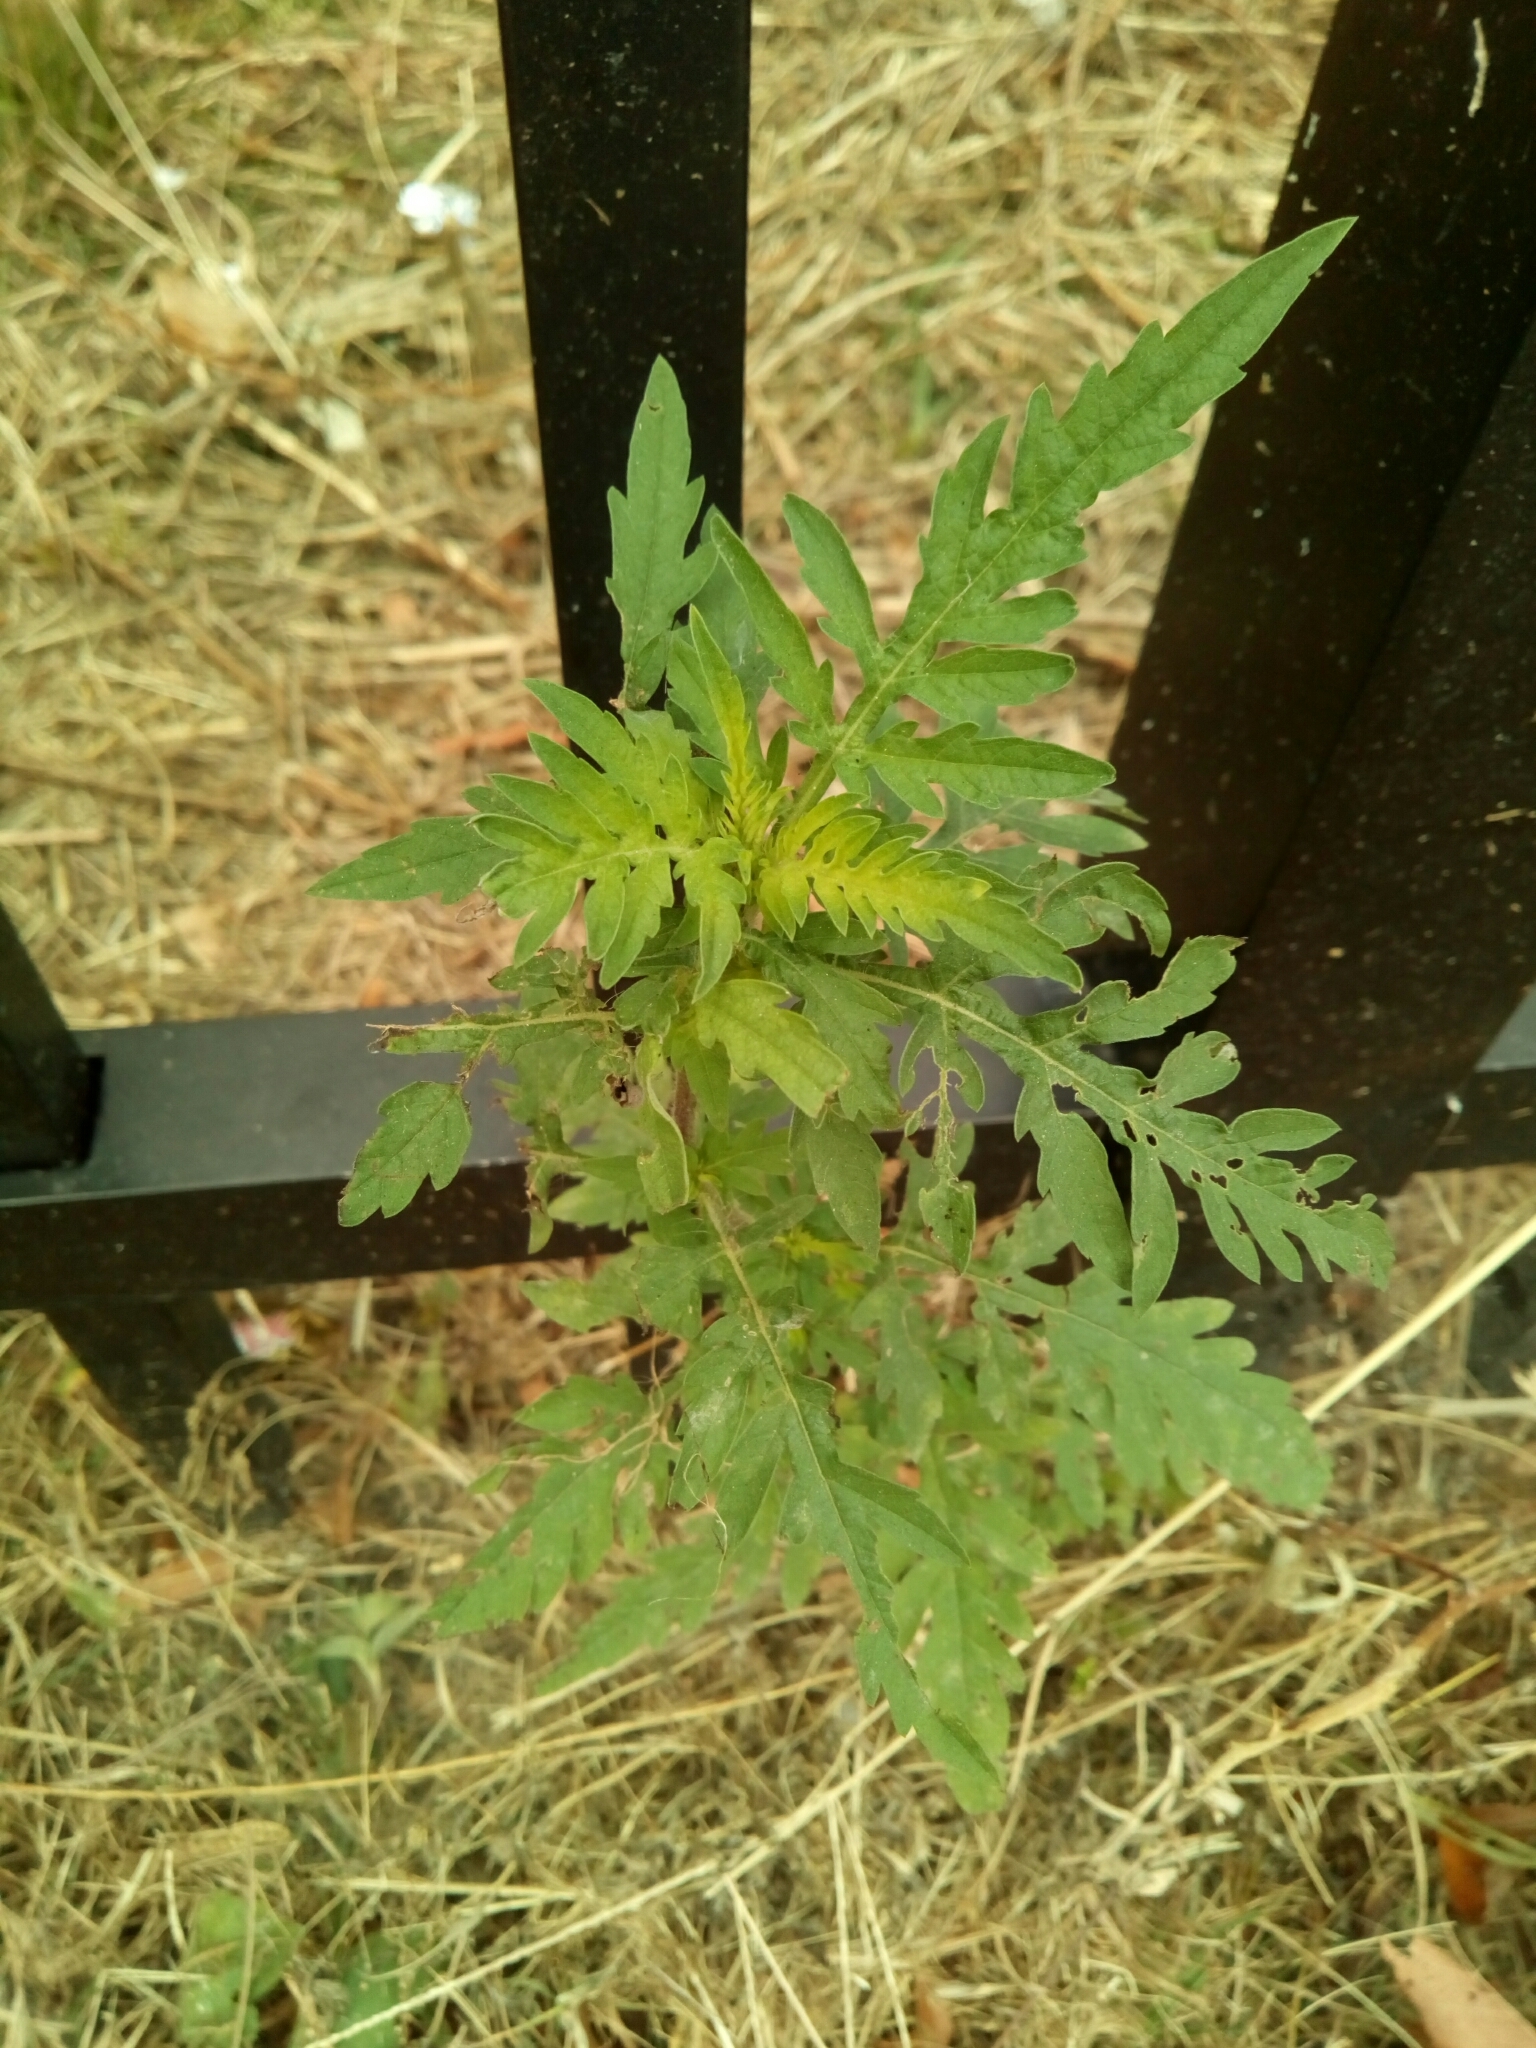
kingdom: Plantae
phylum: Tracheophyta
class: Magnoliopsida
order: Asterales
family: Asteraceae
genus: Ambrosia
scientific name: Ambrosia artemisiifolia
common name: Annual ragweed
